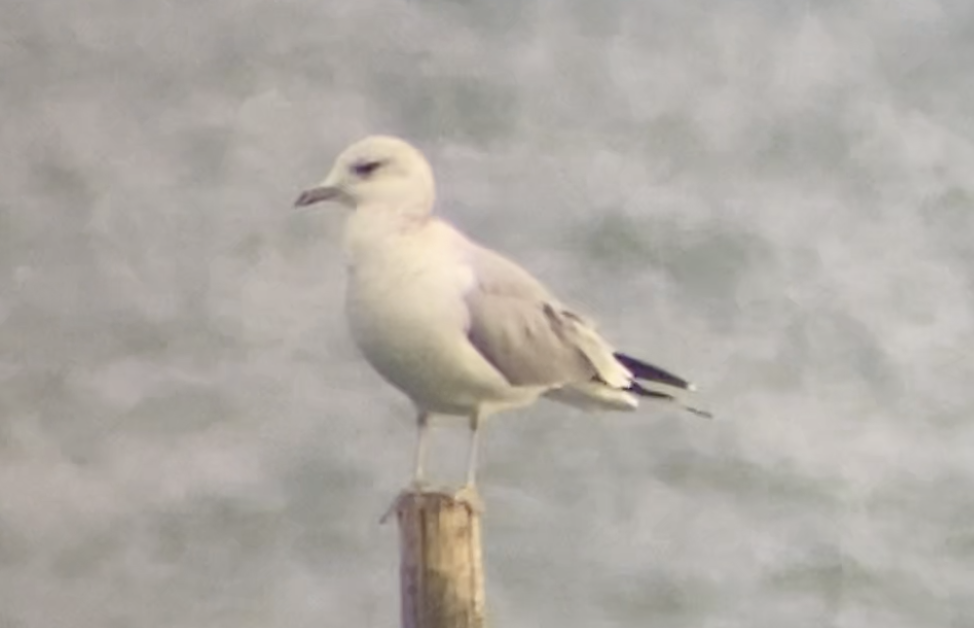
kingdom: Animalia
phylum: Chordata
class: Aves
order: Charadriiformes
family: Laridae
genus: Larus
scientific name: Larus canus
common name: Mew gull
